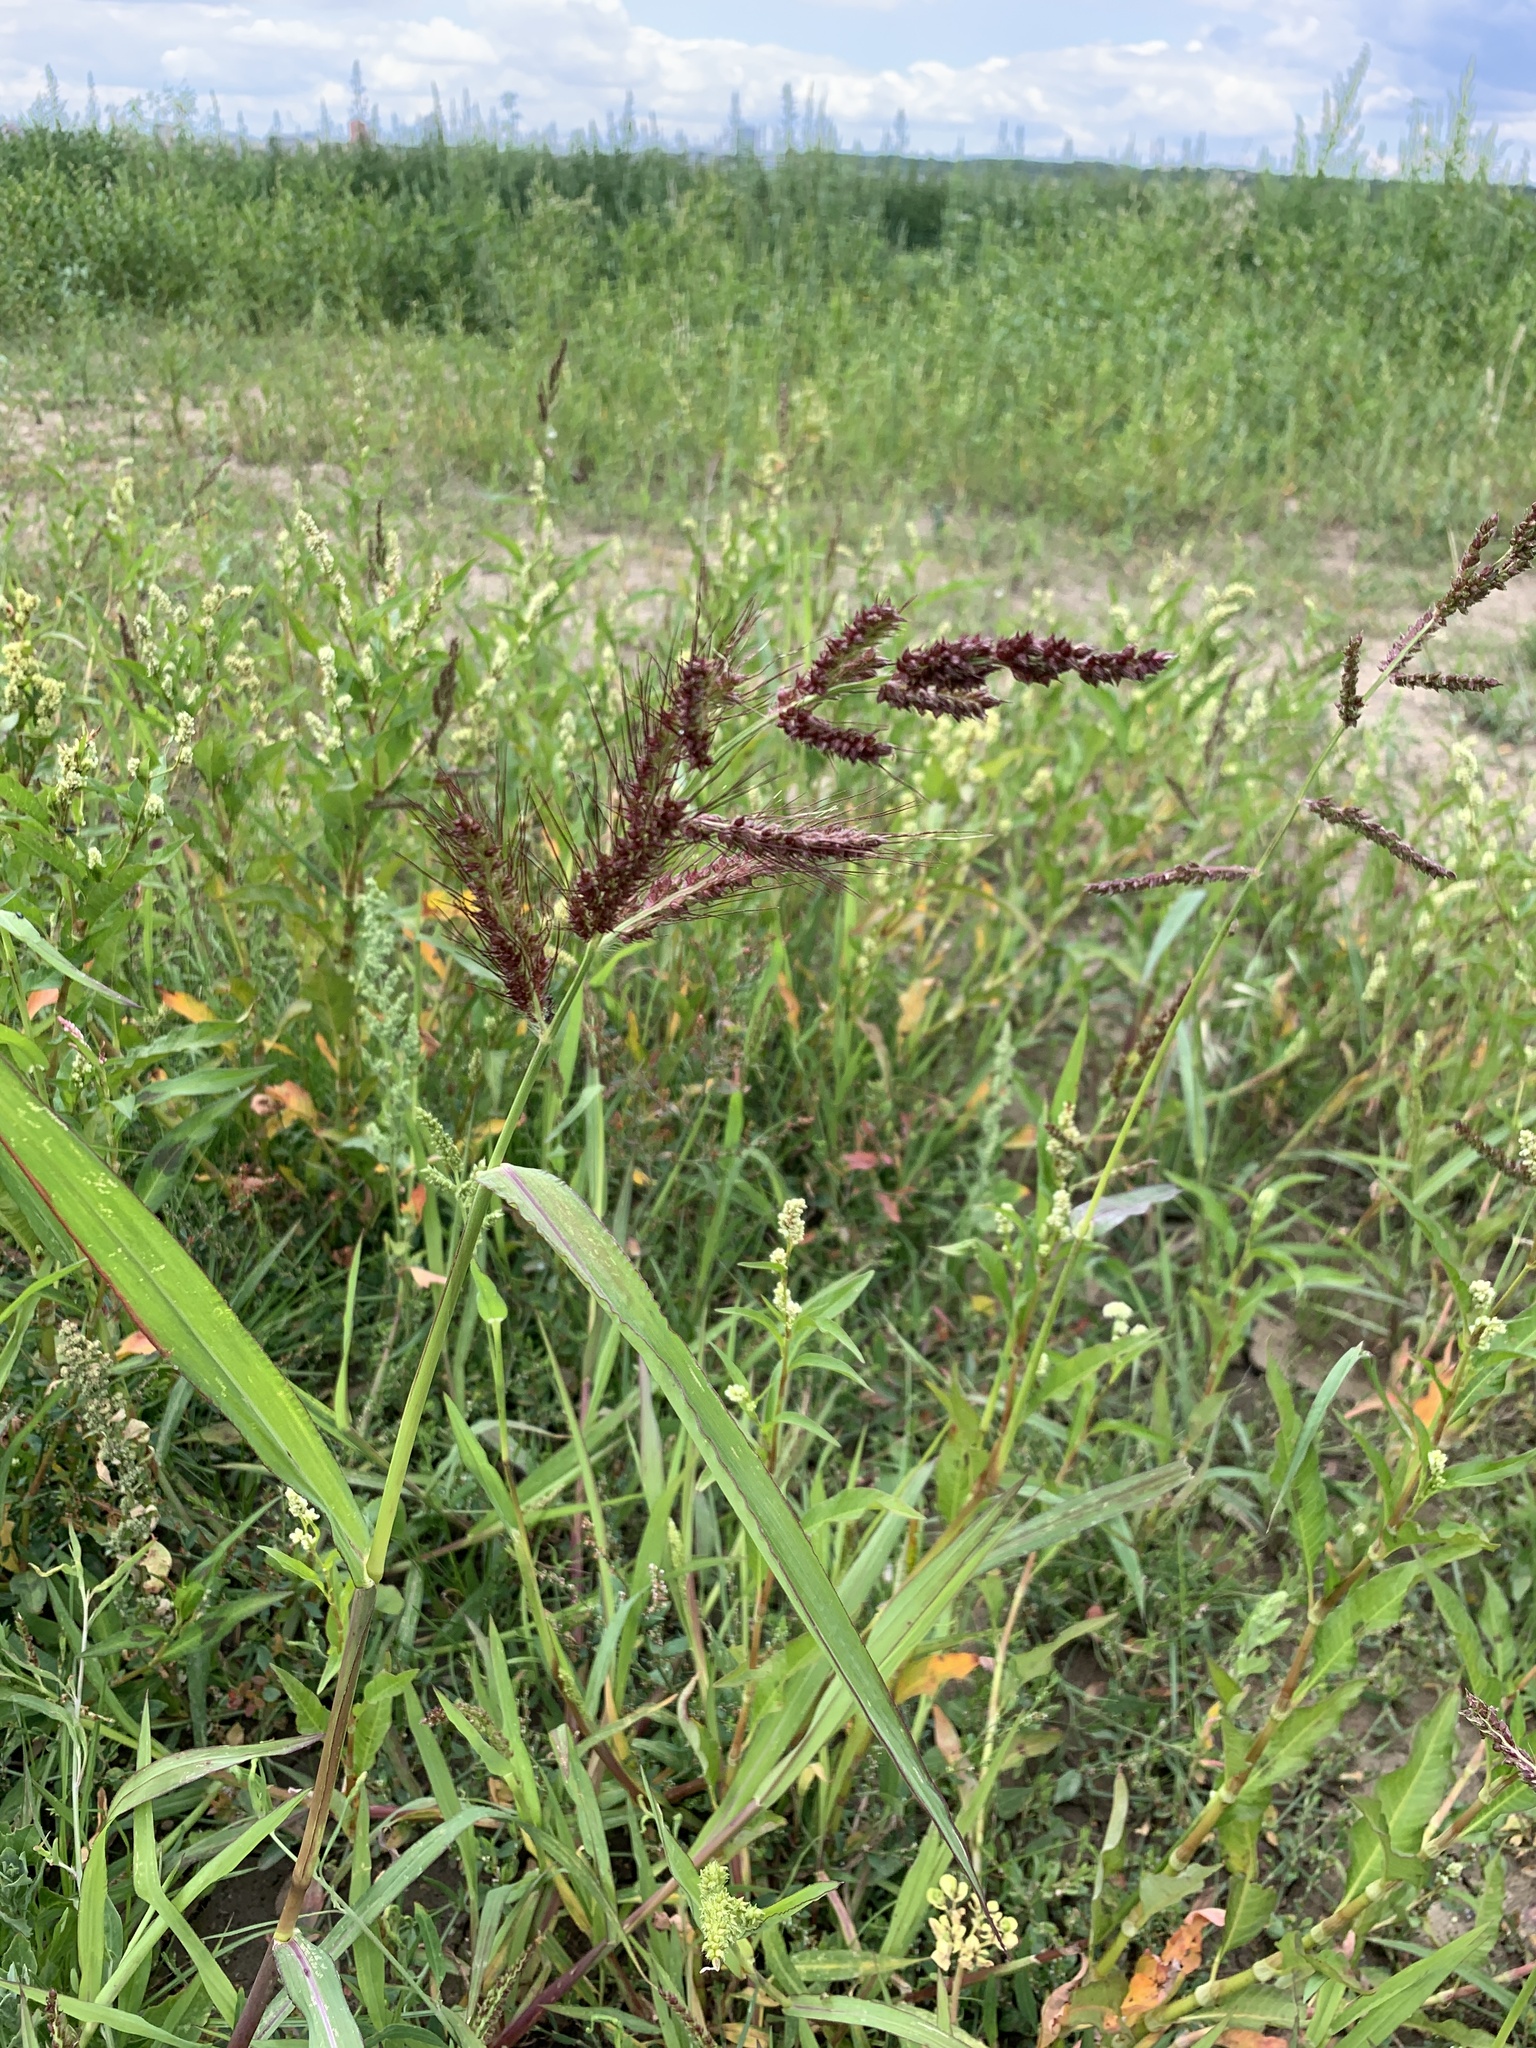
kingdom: Plantae
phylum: Tracheophyta
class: Liliopsida
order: Poales
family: Poaceae
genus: Echinochloa
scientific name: Echinochloa crus-galli
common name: Cockspur
